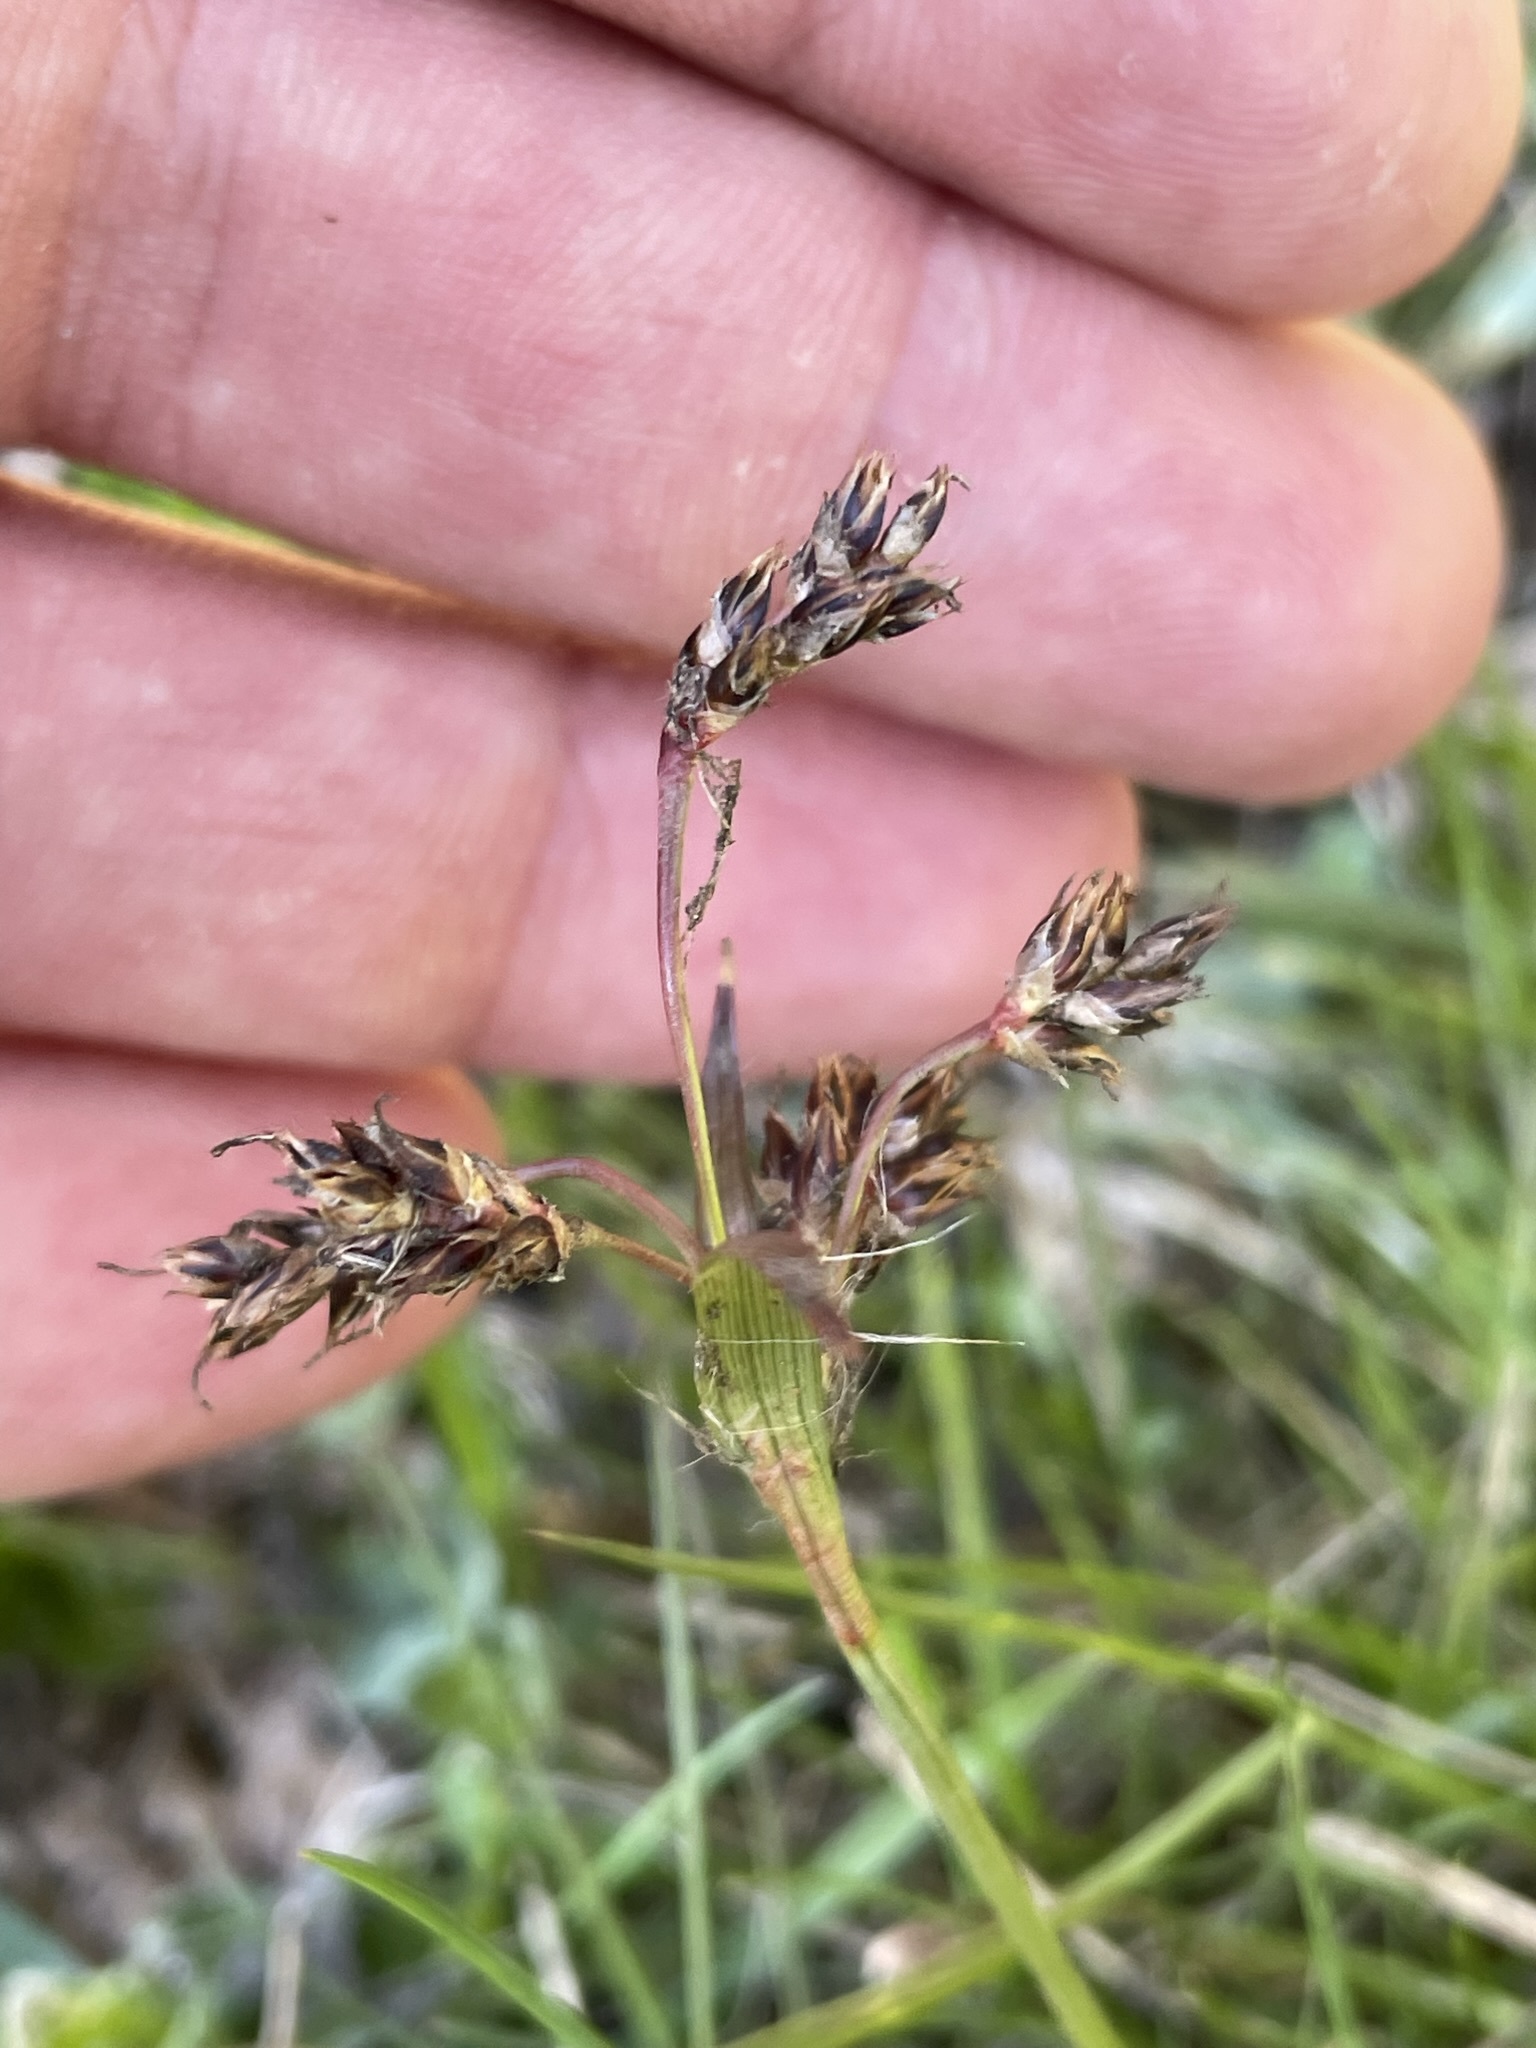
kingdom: Plantae
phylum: Tracheophyta
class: Liliopsida
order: Poales
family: Juncaceae
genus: Luzula
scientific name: Luzula campestris
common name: Field wood-rush
